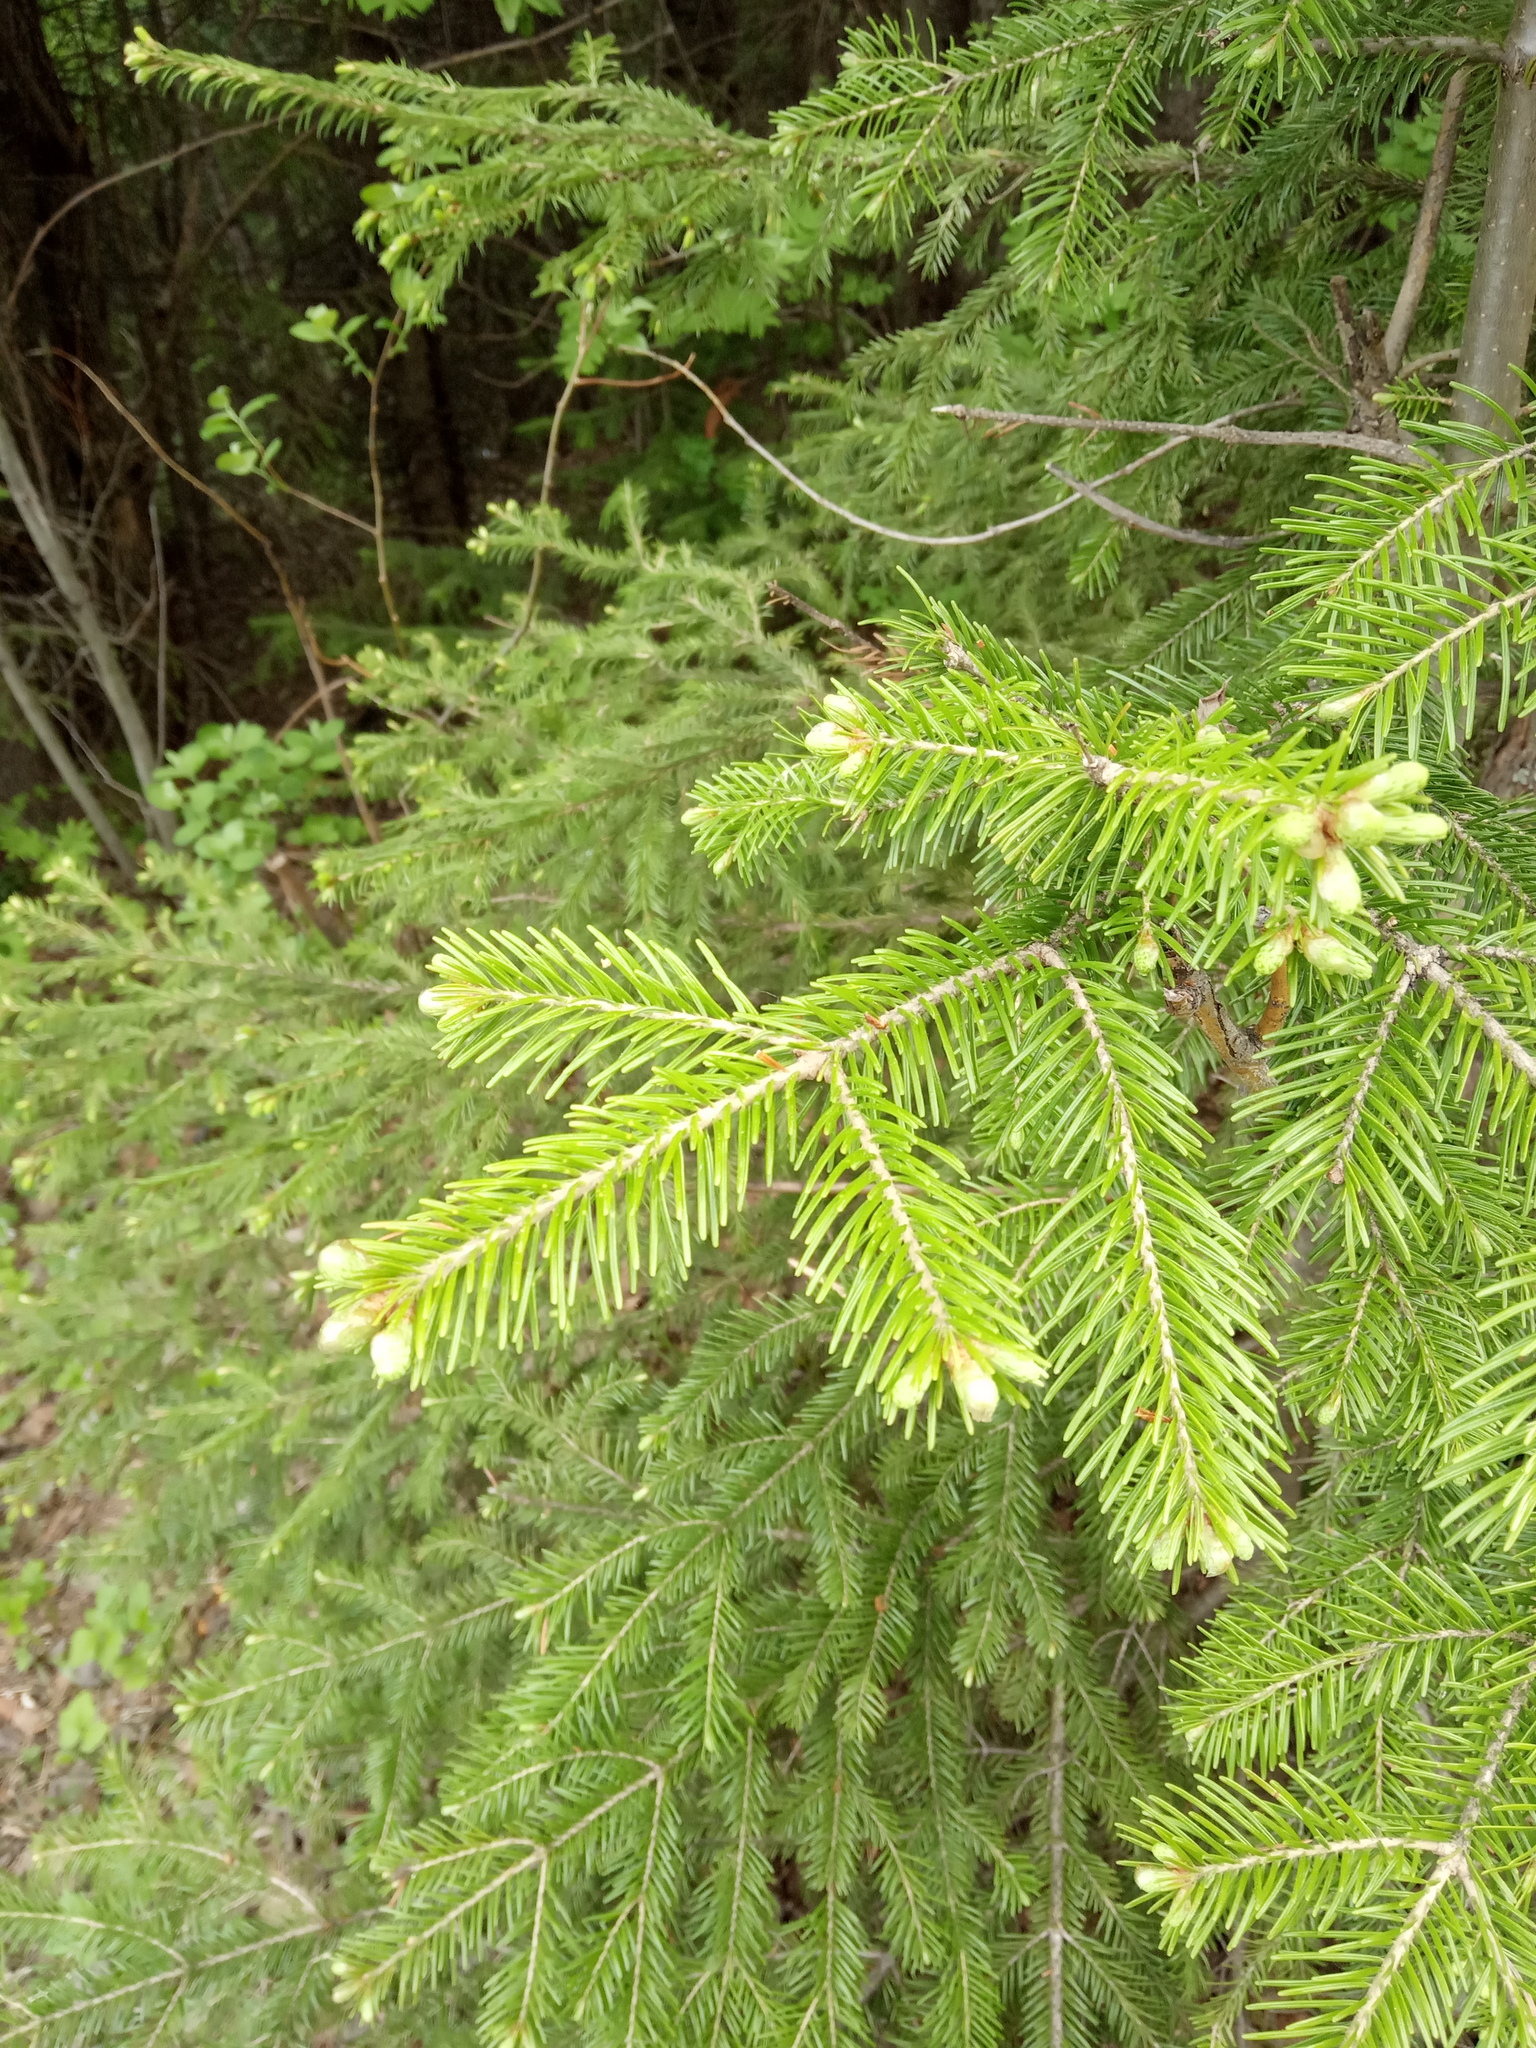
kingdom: Plantae
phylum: Tracheophyta
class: Pinopsida
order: Pinales
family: Pinaceae
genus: Abies
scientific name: Abies sibirica
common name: Siberian fir
